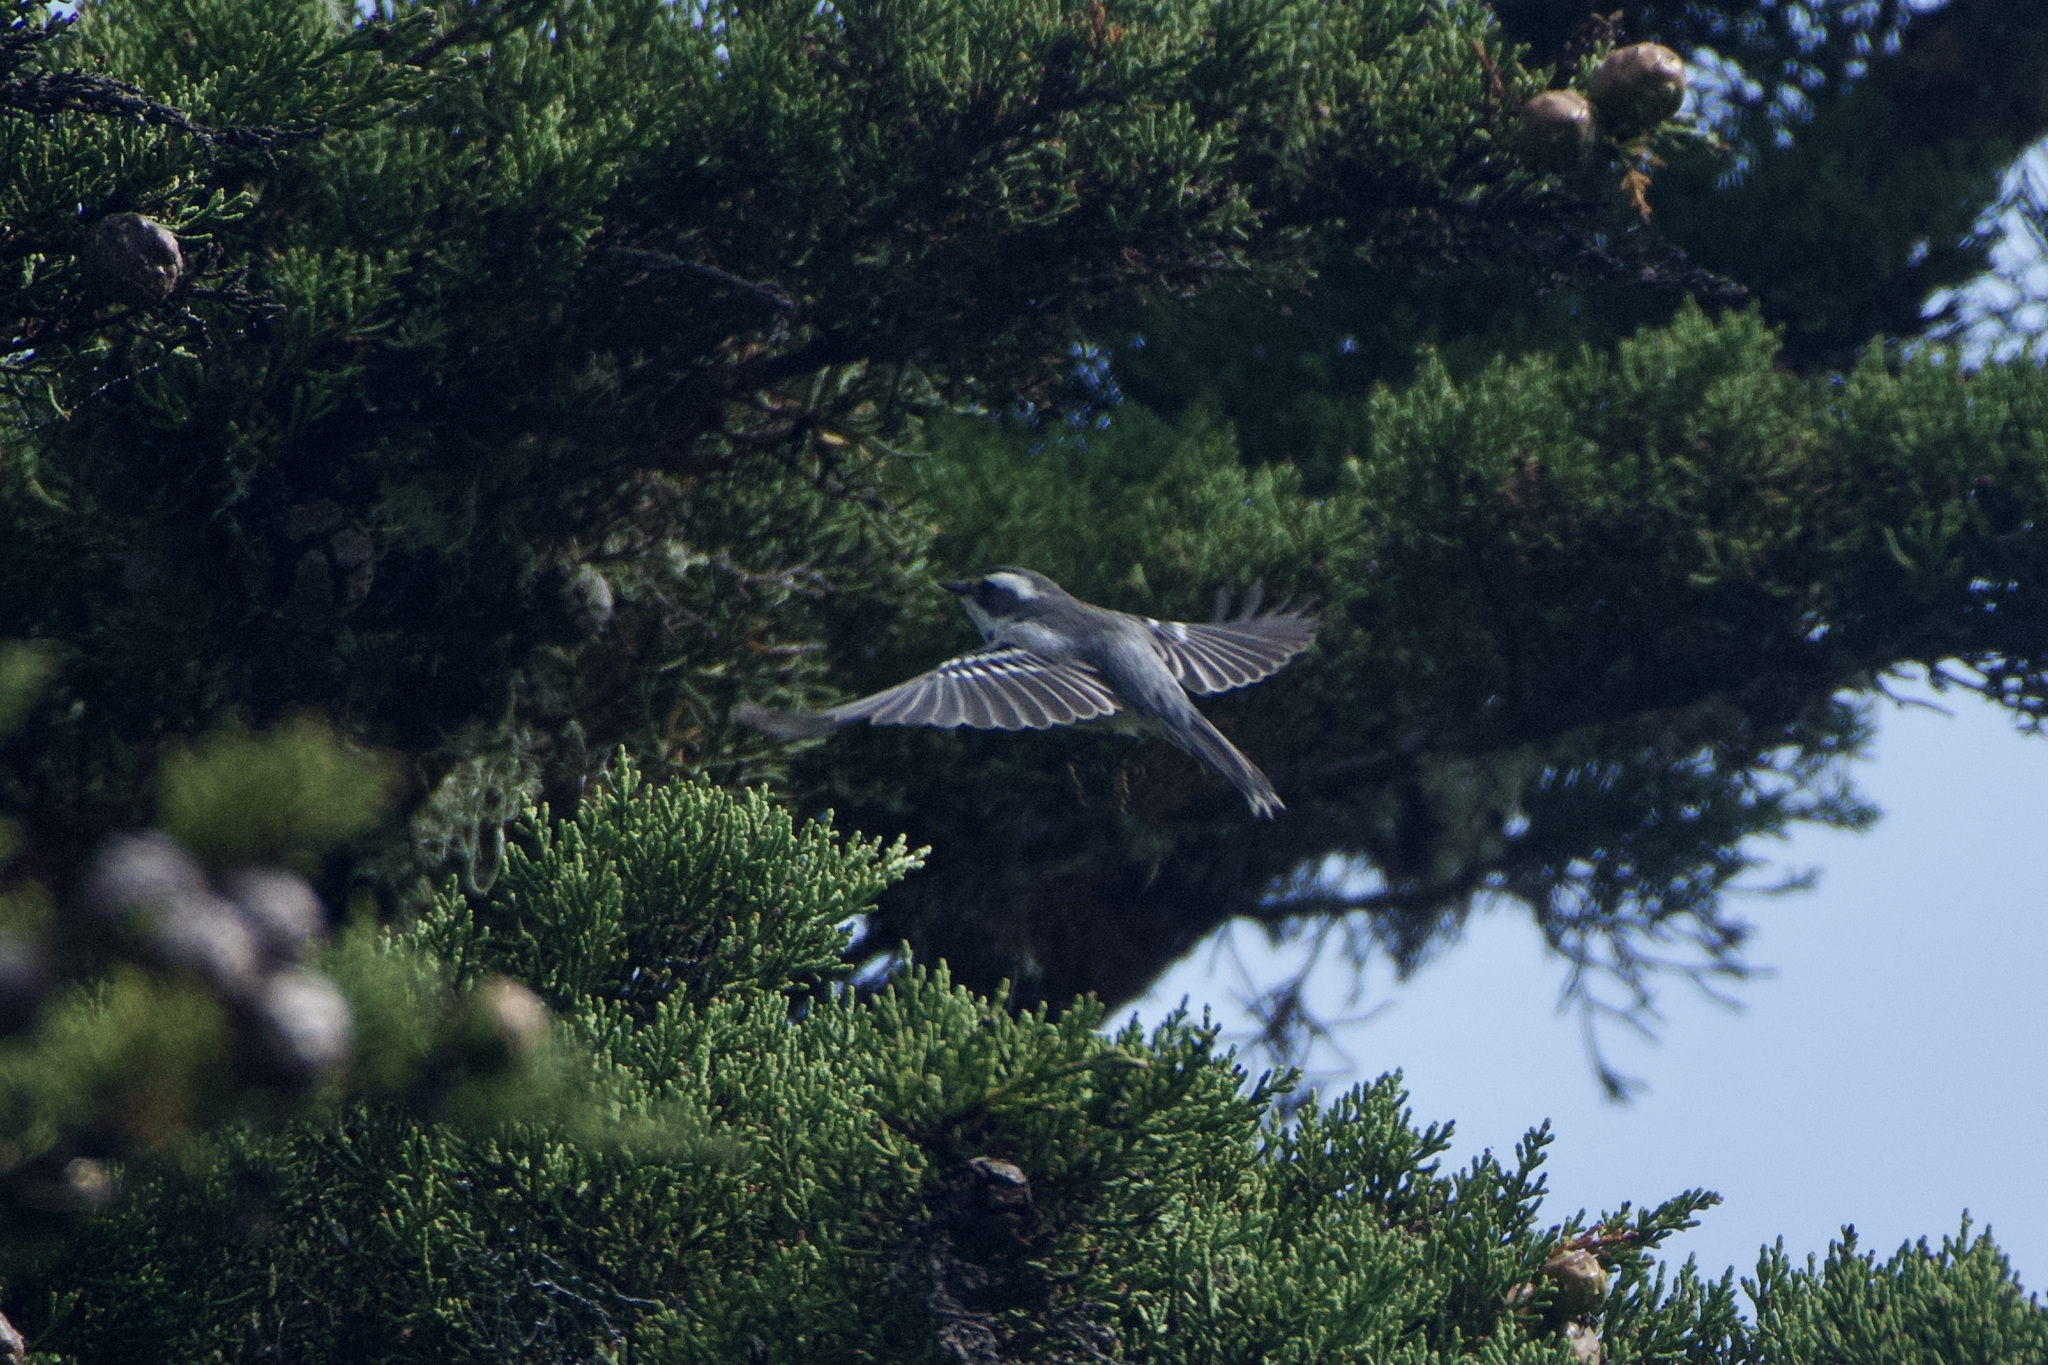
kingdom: Animalia
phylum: Chordata
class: Aves
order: Passeriformes
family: Parulidae
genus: Setophaga
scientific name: Setophaga nigrescens
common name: Black-throated gray warbler
